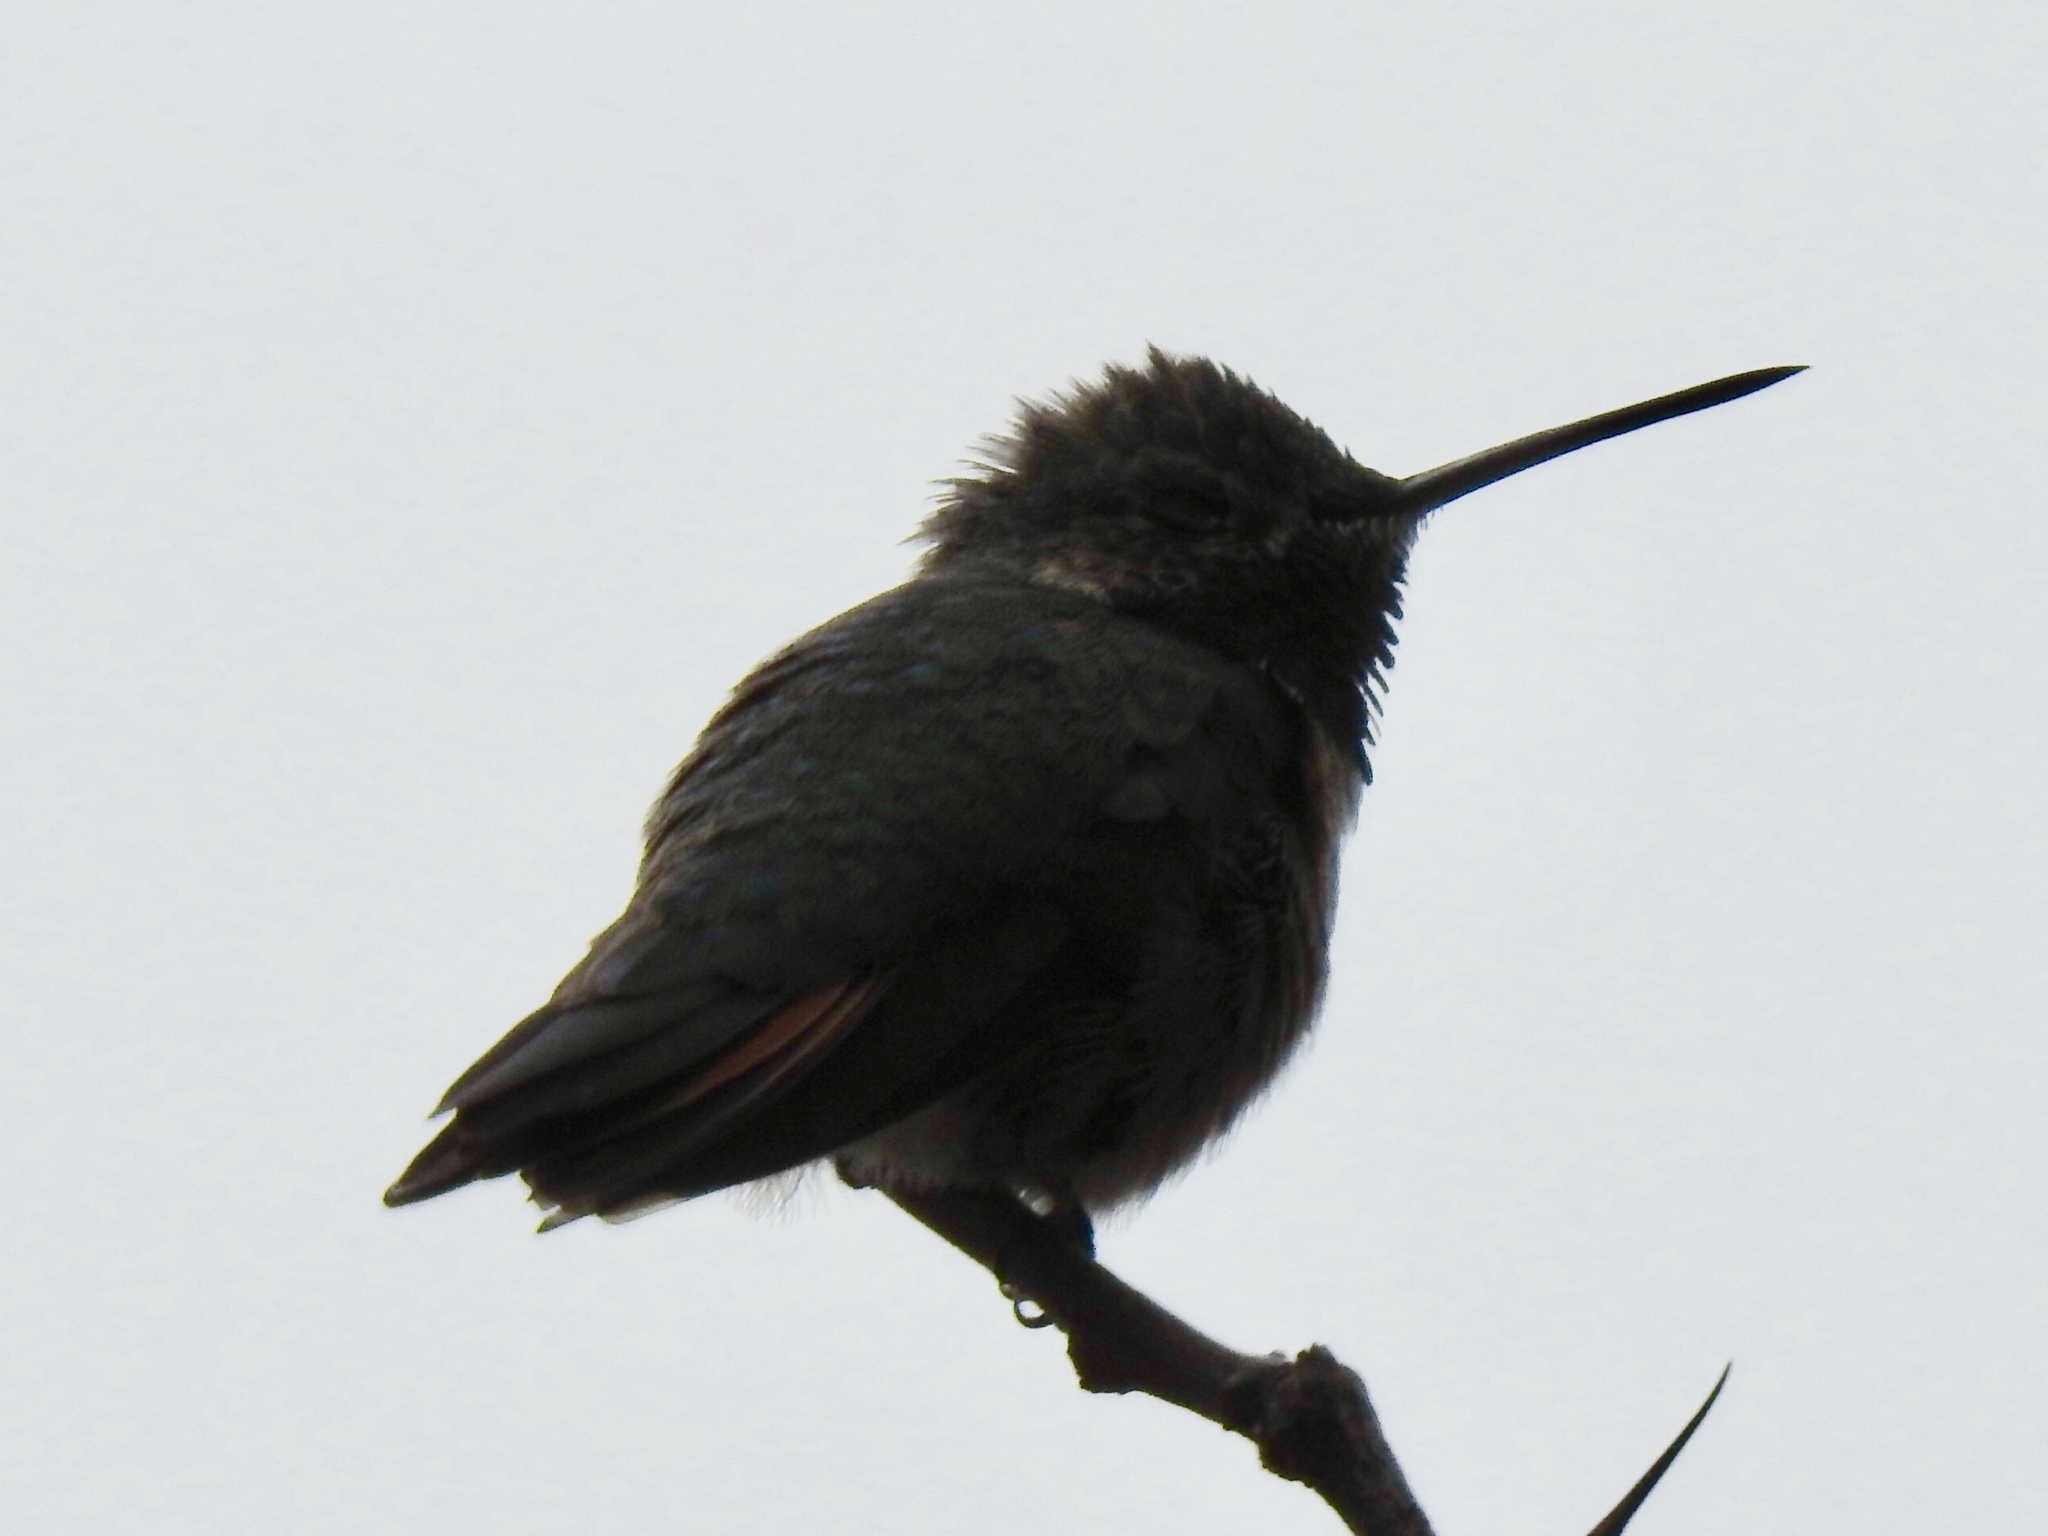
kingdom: Animalia
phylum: Chordata
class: Aves
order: Apodiformes
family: Trochilidae
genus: Selasphorus
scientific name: Selasphorus platycercus
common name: Broad-tailed hummingbird
